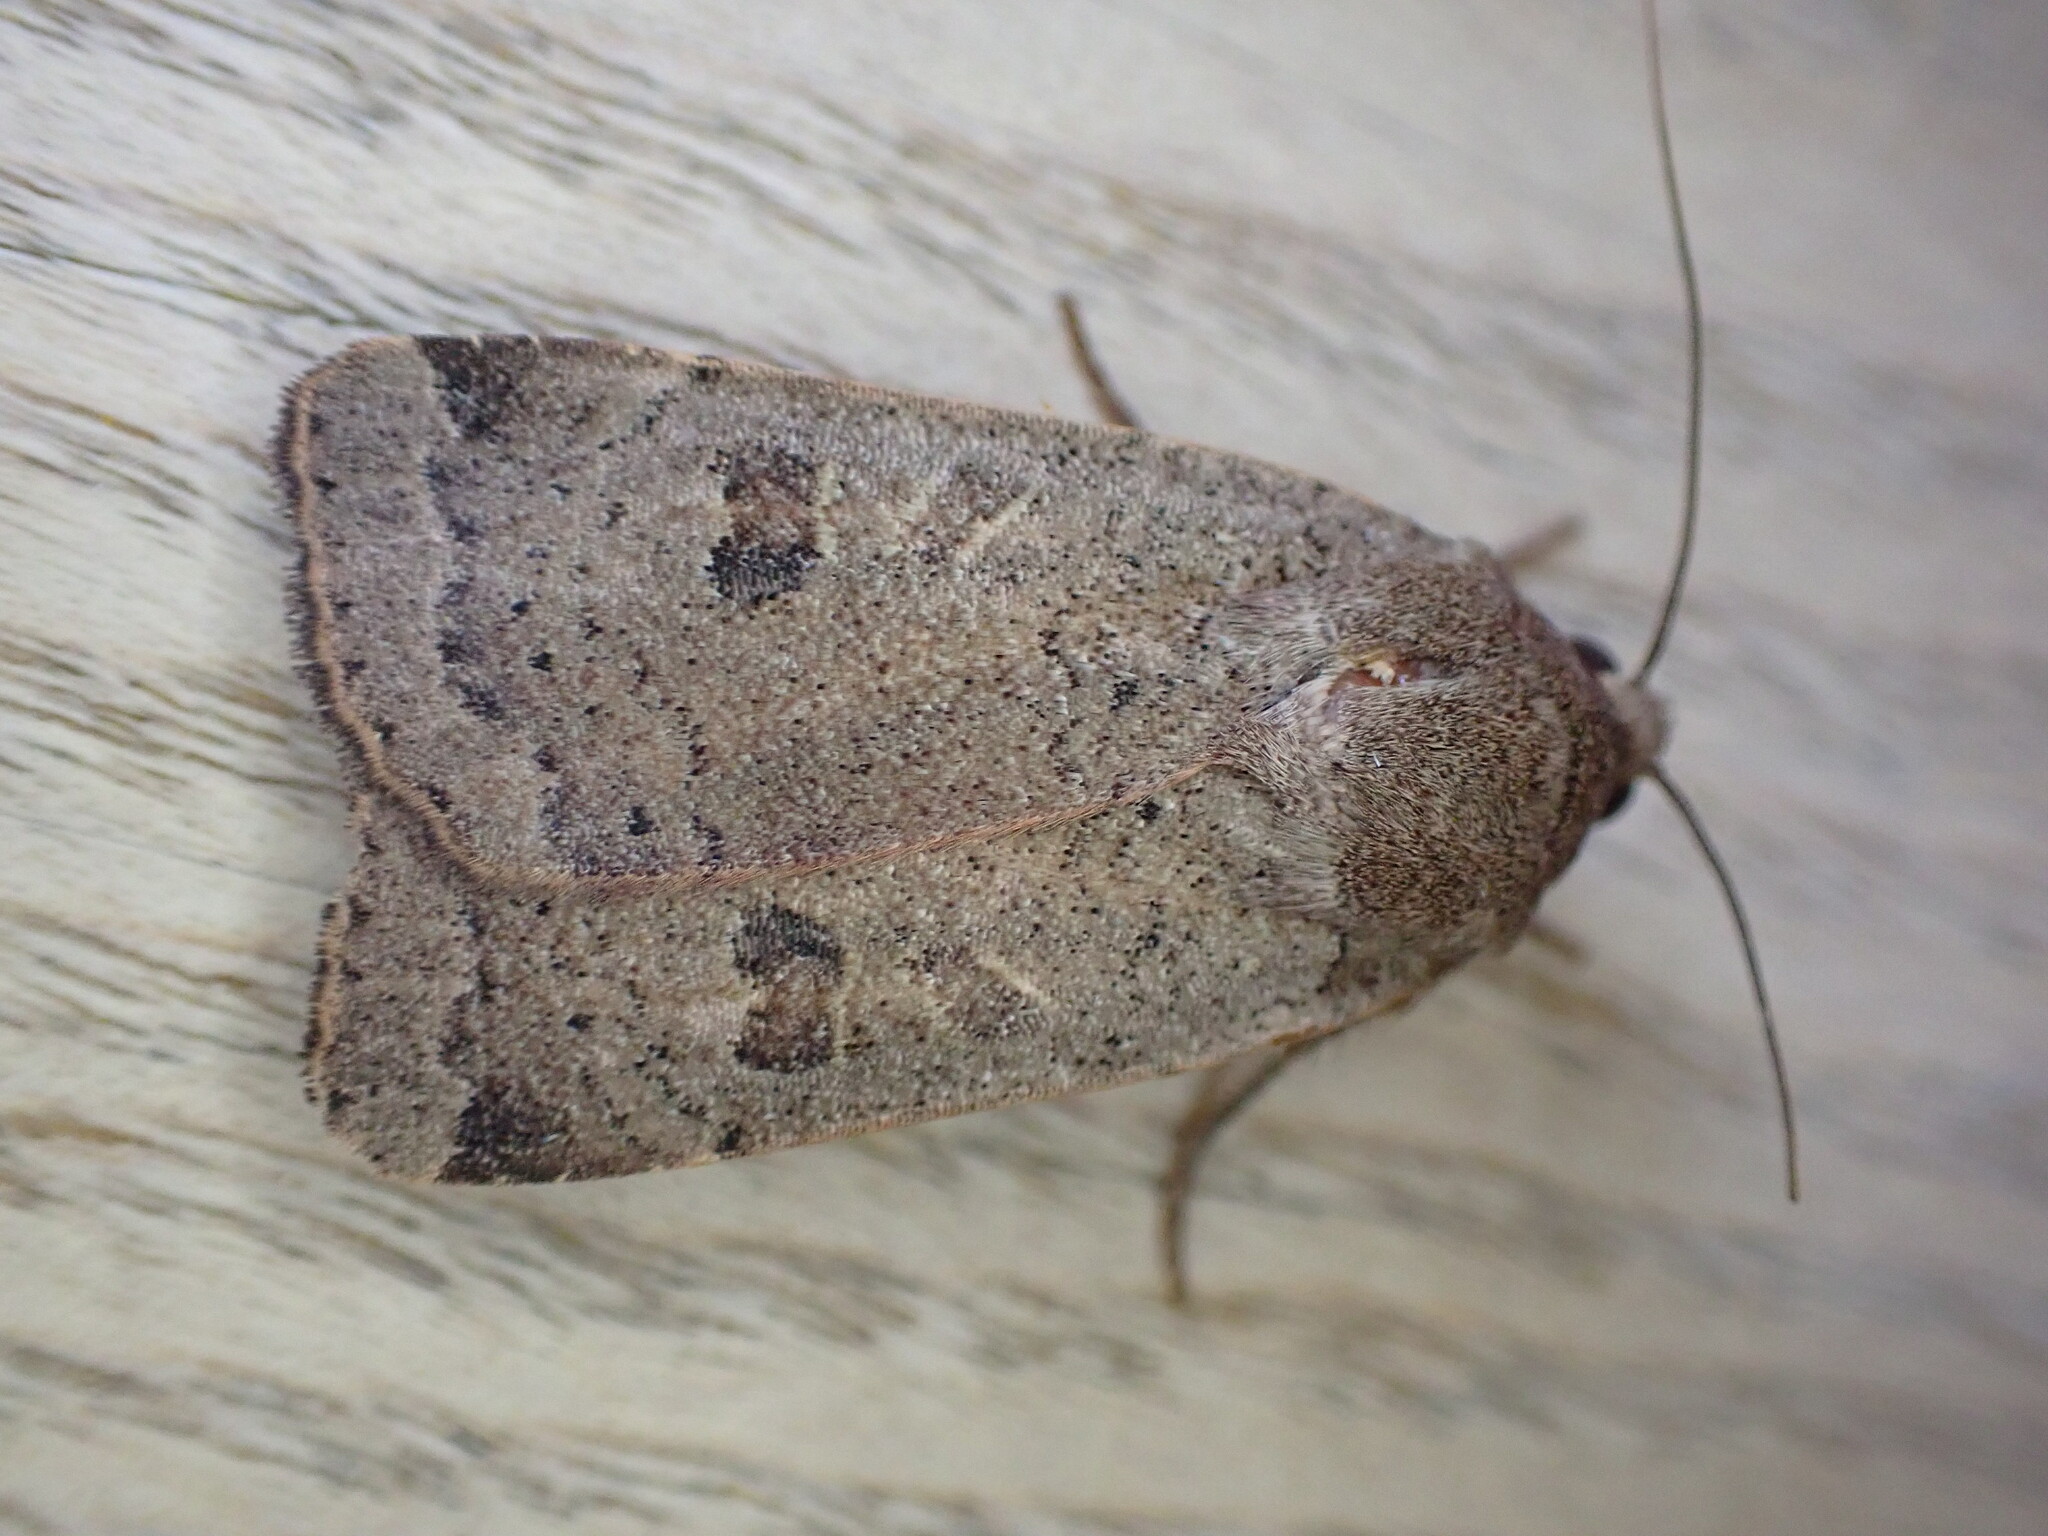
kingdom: Animalia
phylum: Arthropoda
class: Insecta
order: Lepidoptera
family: Noctuidae
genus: Noctua
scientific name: Noctua comes
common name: Lesser yellow underwing
